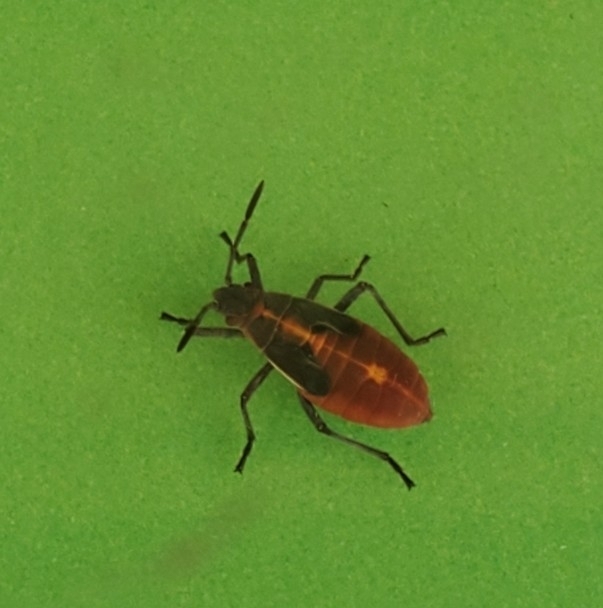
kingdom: Animalia
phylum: Arthropoda
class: Insecta
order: Hemiptera
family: Rhopalidae
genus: Boisea
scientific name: Boisea trivittata
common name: Boxelder bug
